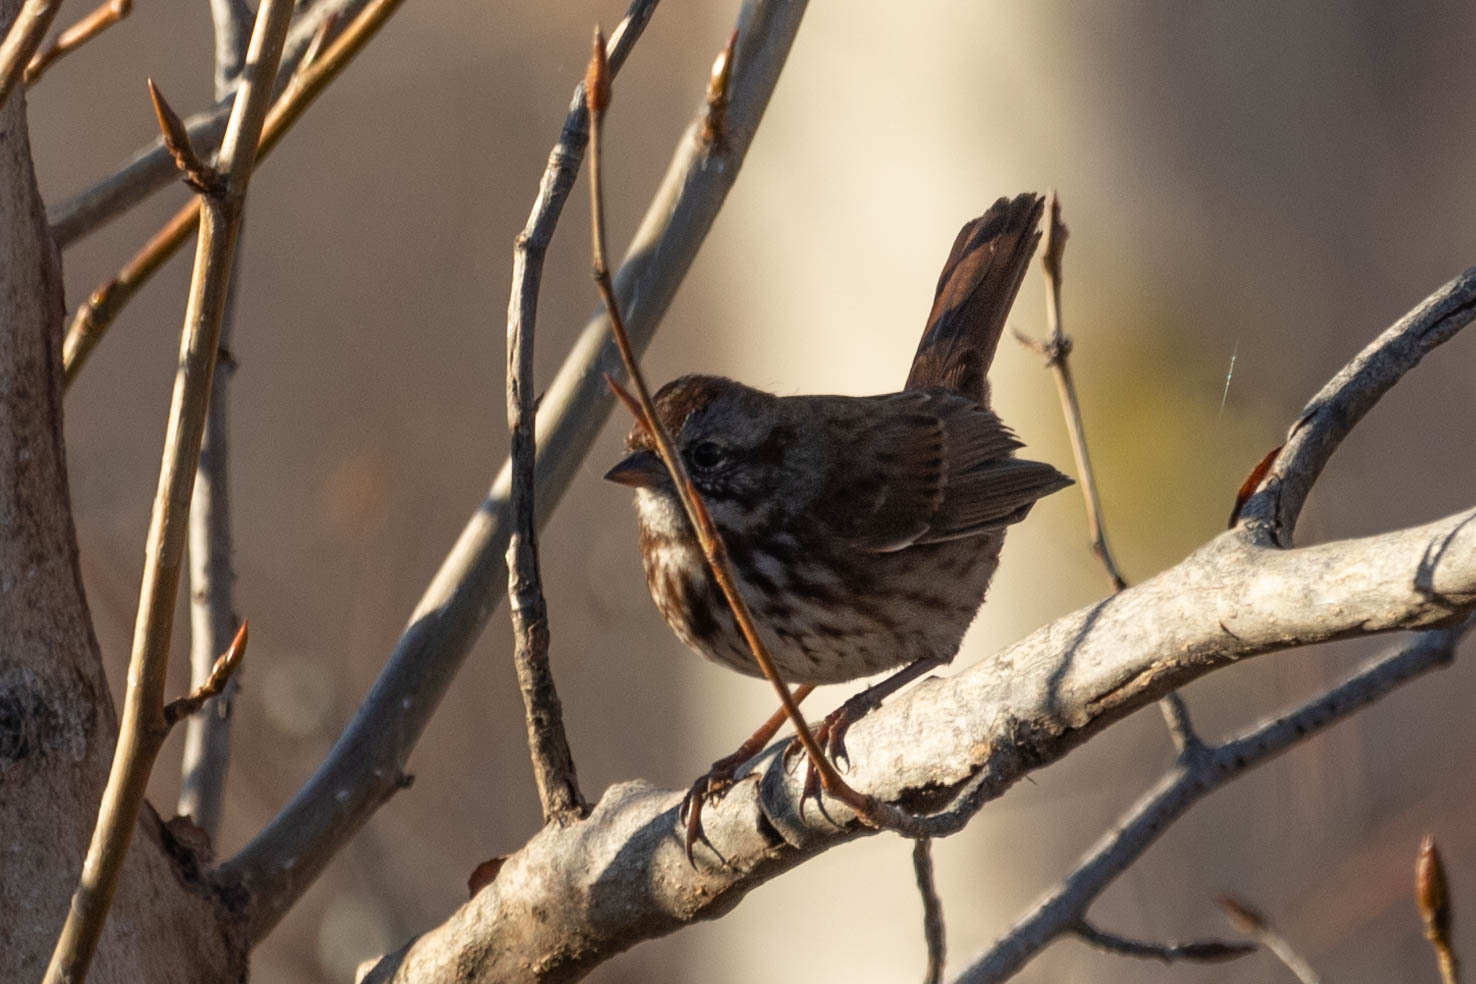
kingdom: Animalia
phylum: Chordata
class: Aves
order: Passeriformes
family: Passerellidae
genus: Melospiza
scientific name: Melospiza melodia
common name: Song sparrow
